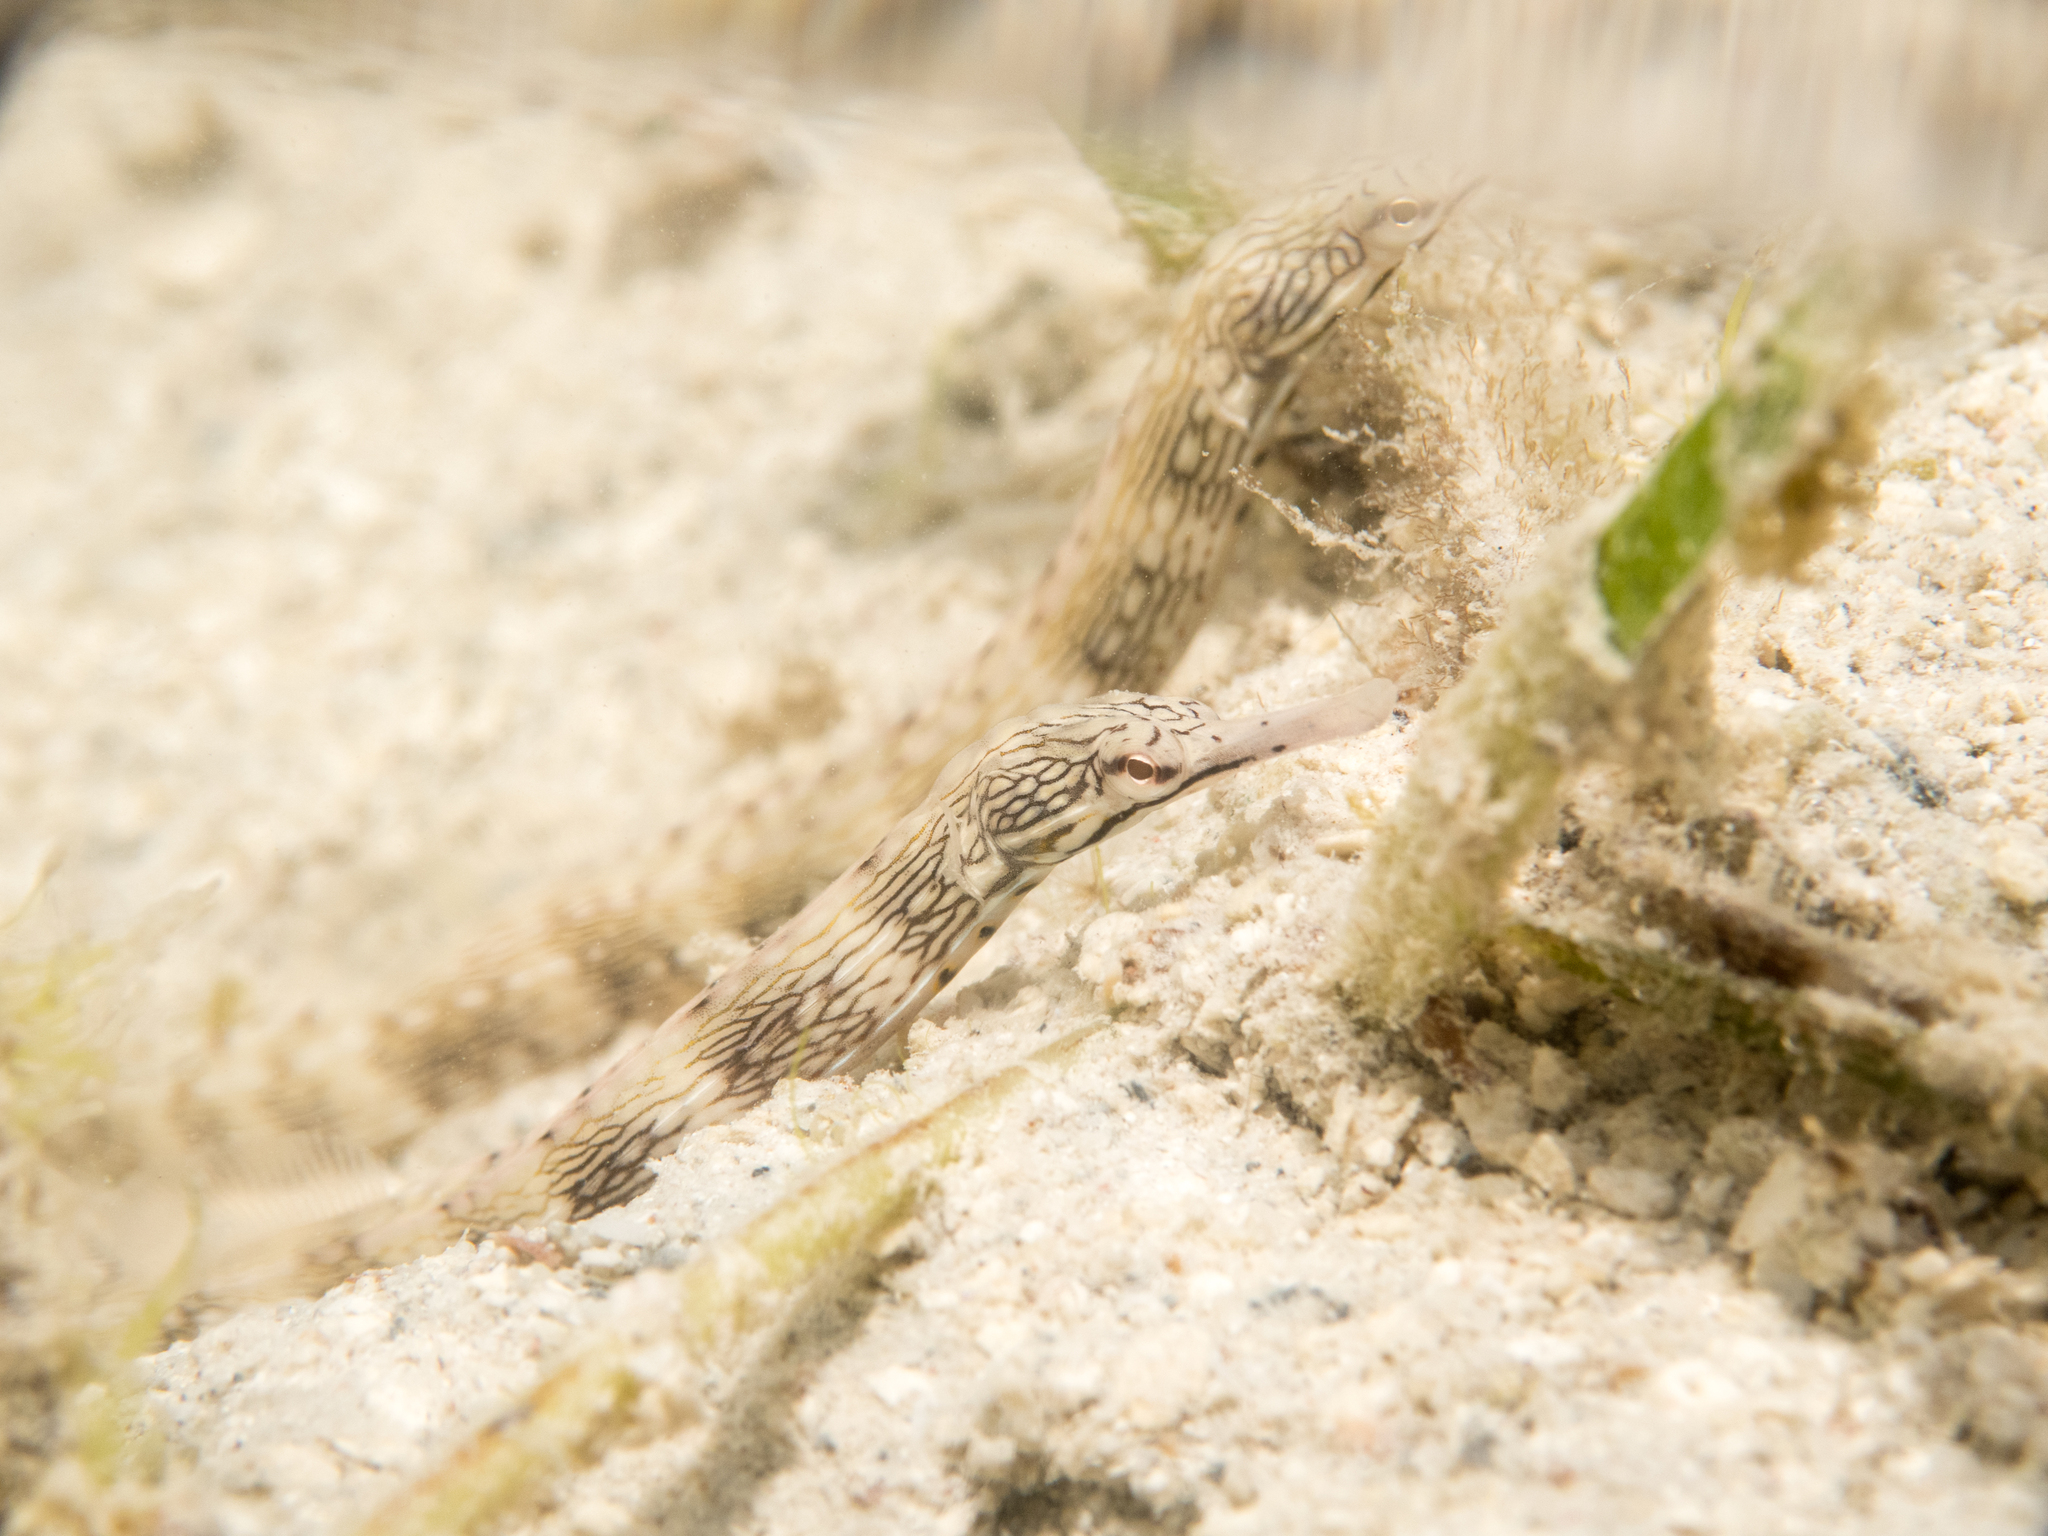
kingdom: Animalia
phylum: Chordata
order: Syngnathiformes
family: Syngnathidae
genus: Corythoichthys
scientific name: Corythoichthys haematopterus
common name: Bloodspot pipefish
